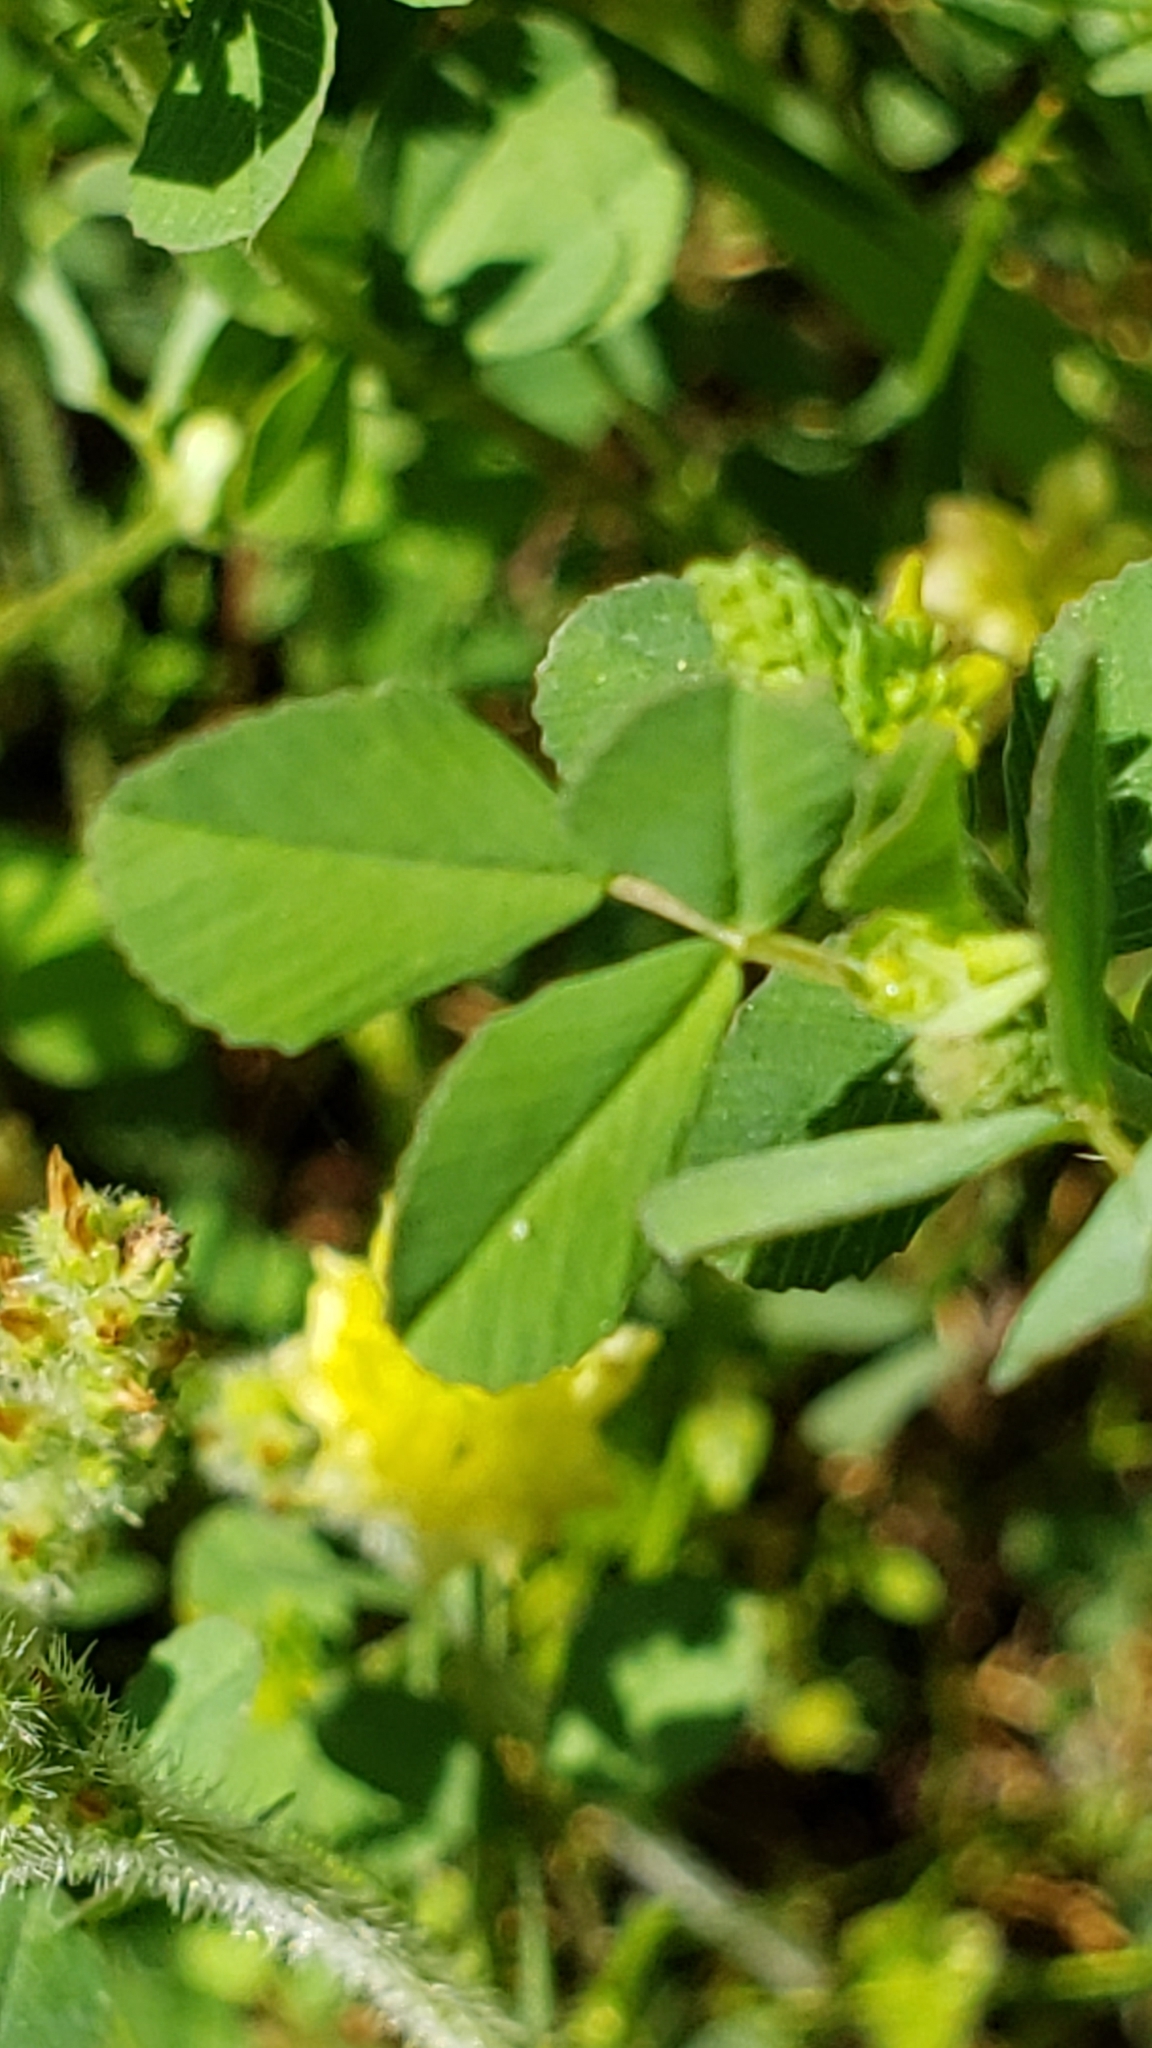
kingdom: Plantae
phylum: Tracheophyta
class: Magnoliopsida
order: Fabales
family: Fabaceae
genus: Trifolium
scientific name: Trifolium campestre
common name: Field clover
